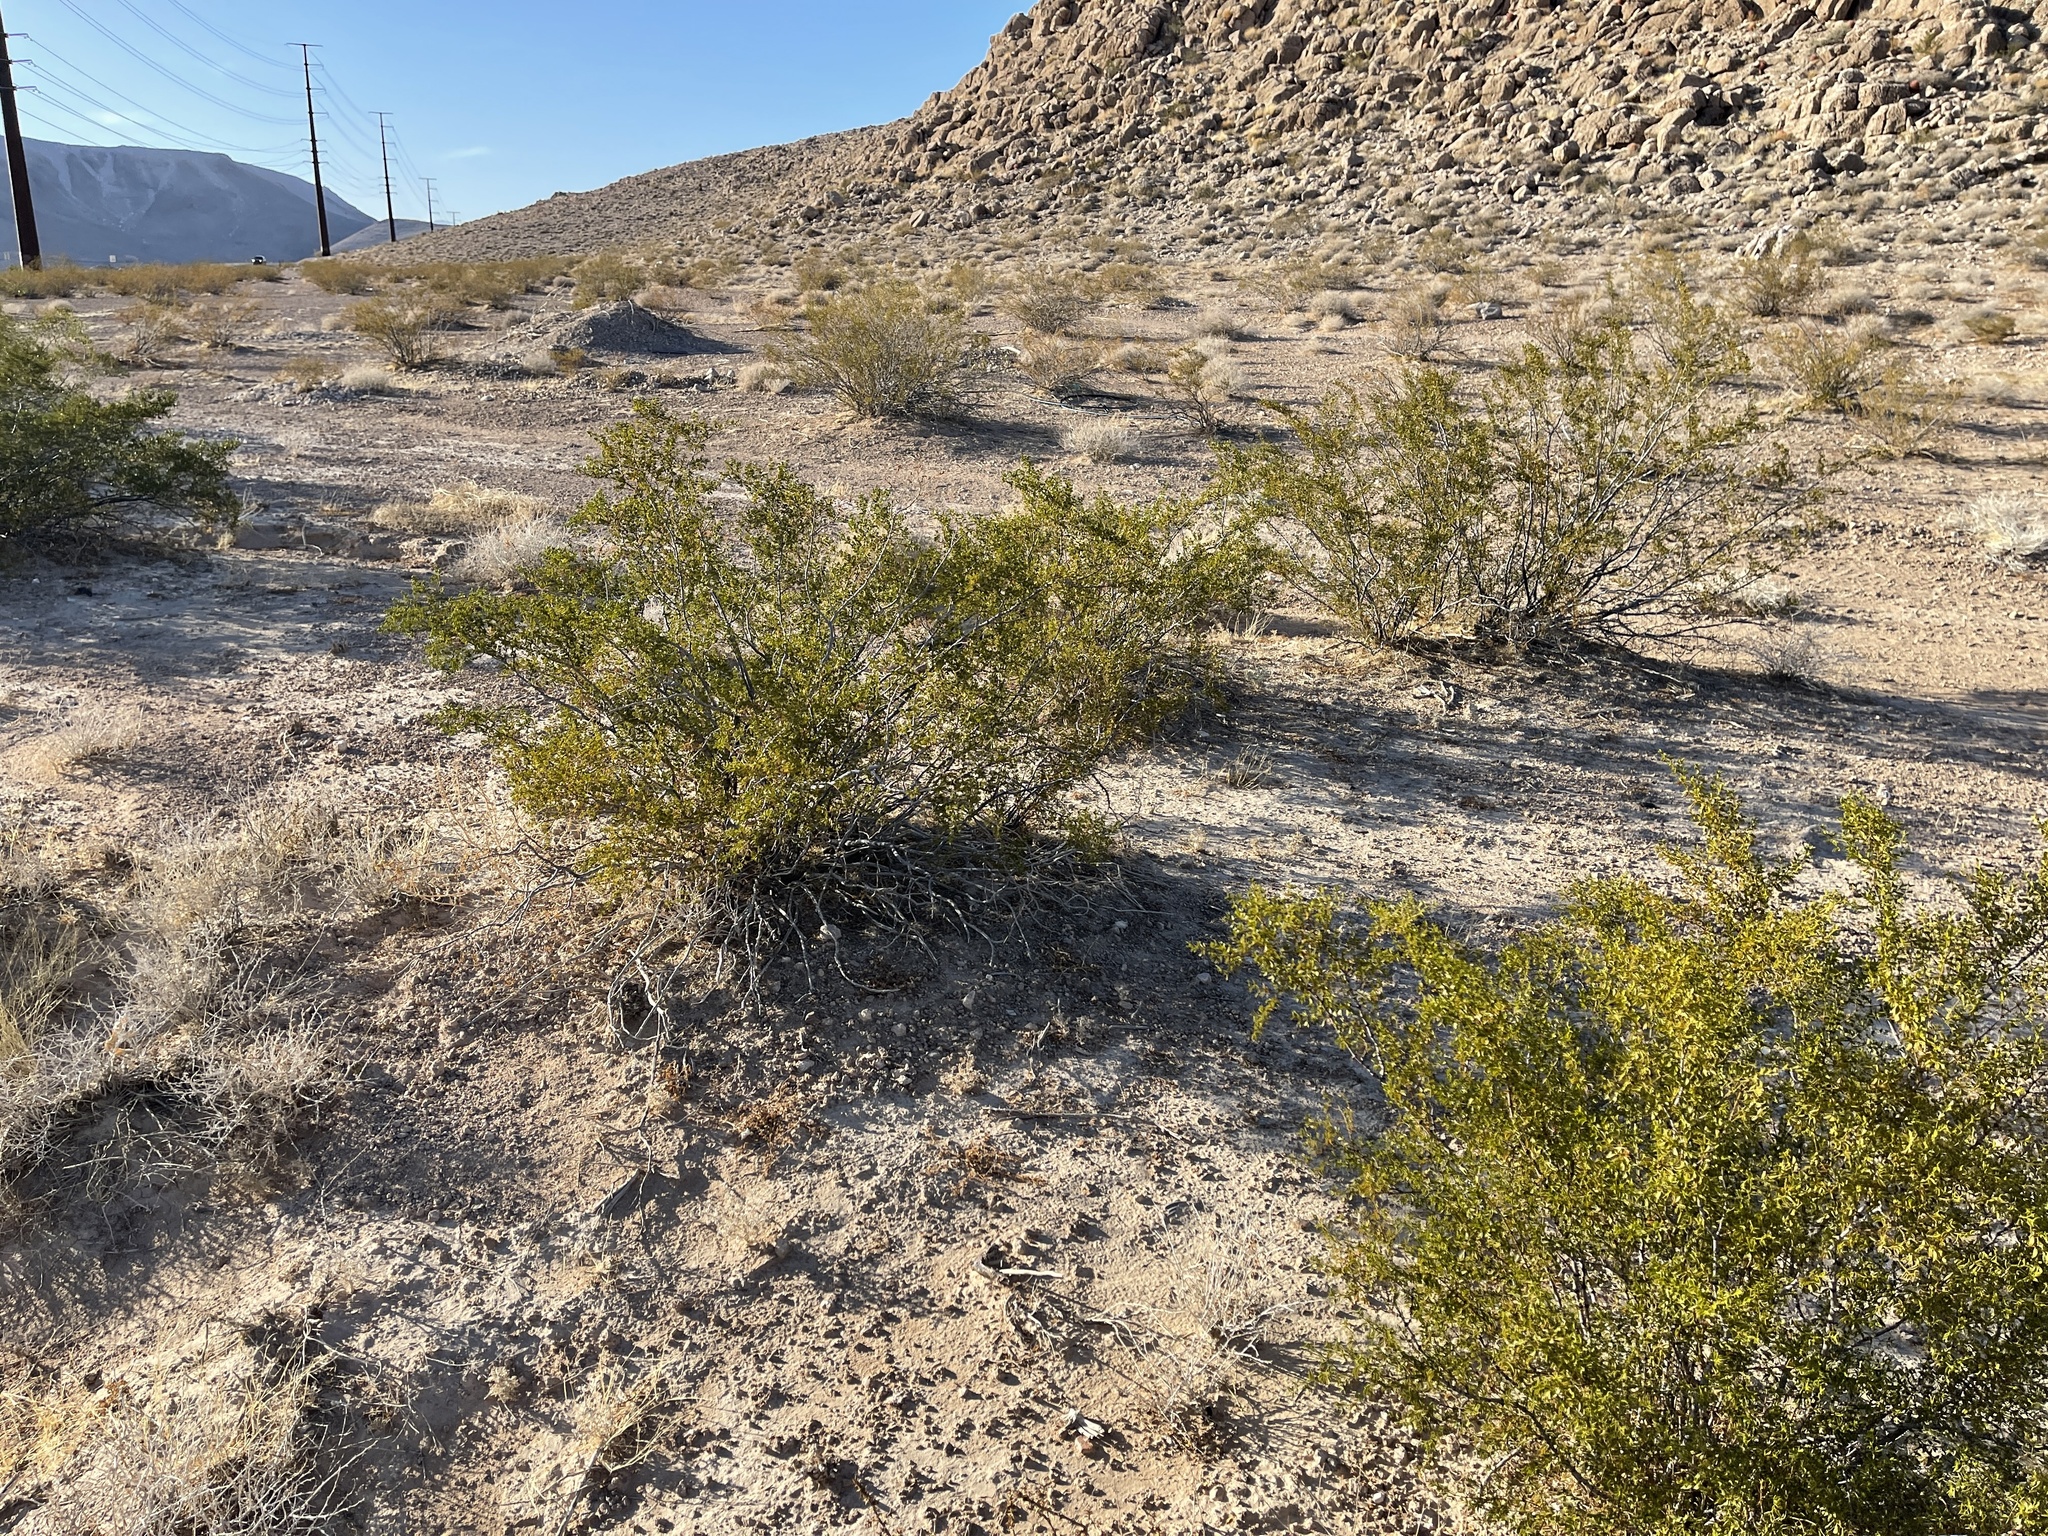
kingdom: Plantae
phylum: Tracheophyta
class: Magnoliopsida
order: Zygophyllales
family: Zygophyllaceae
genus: Larrea
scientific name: Larrea tridentata
